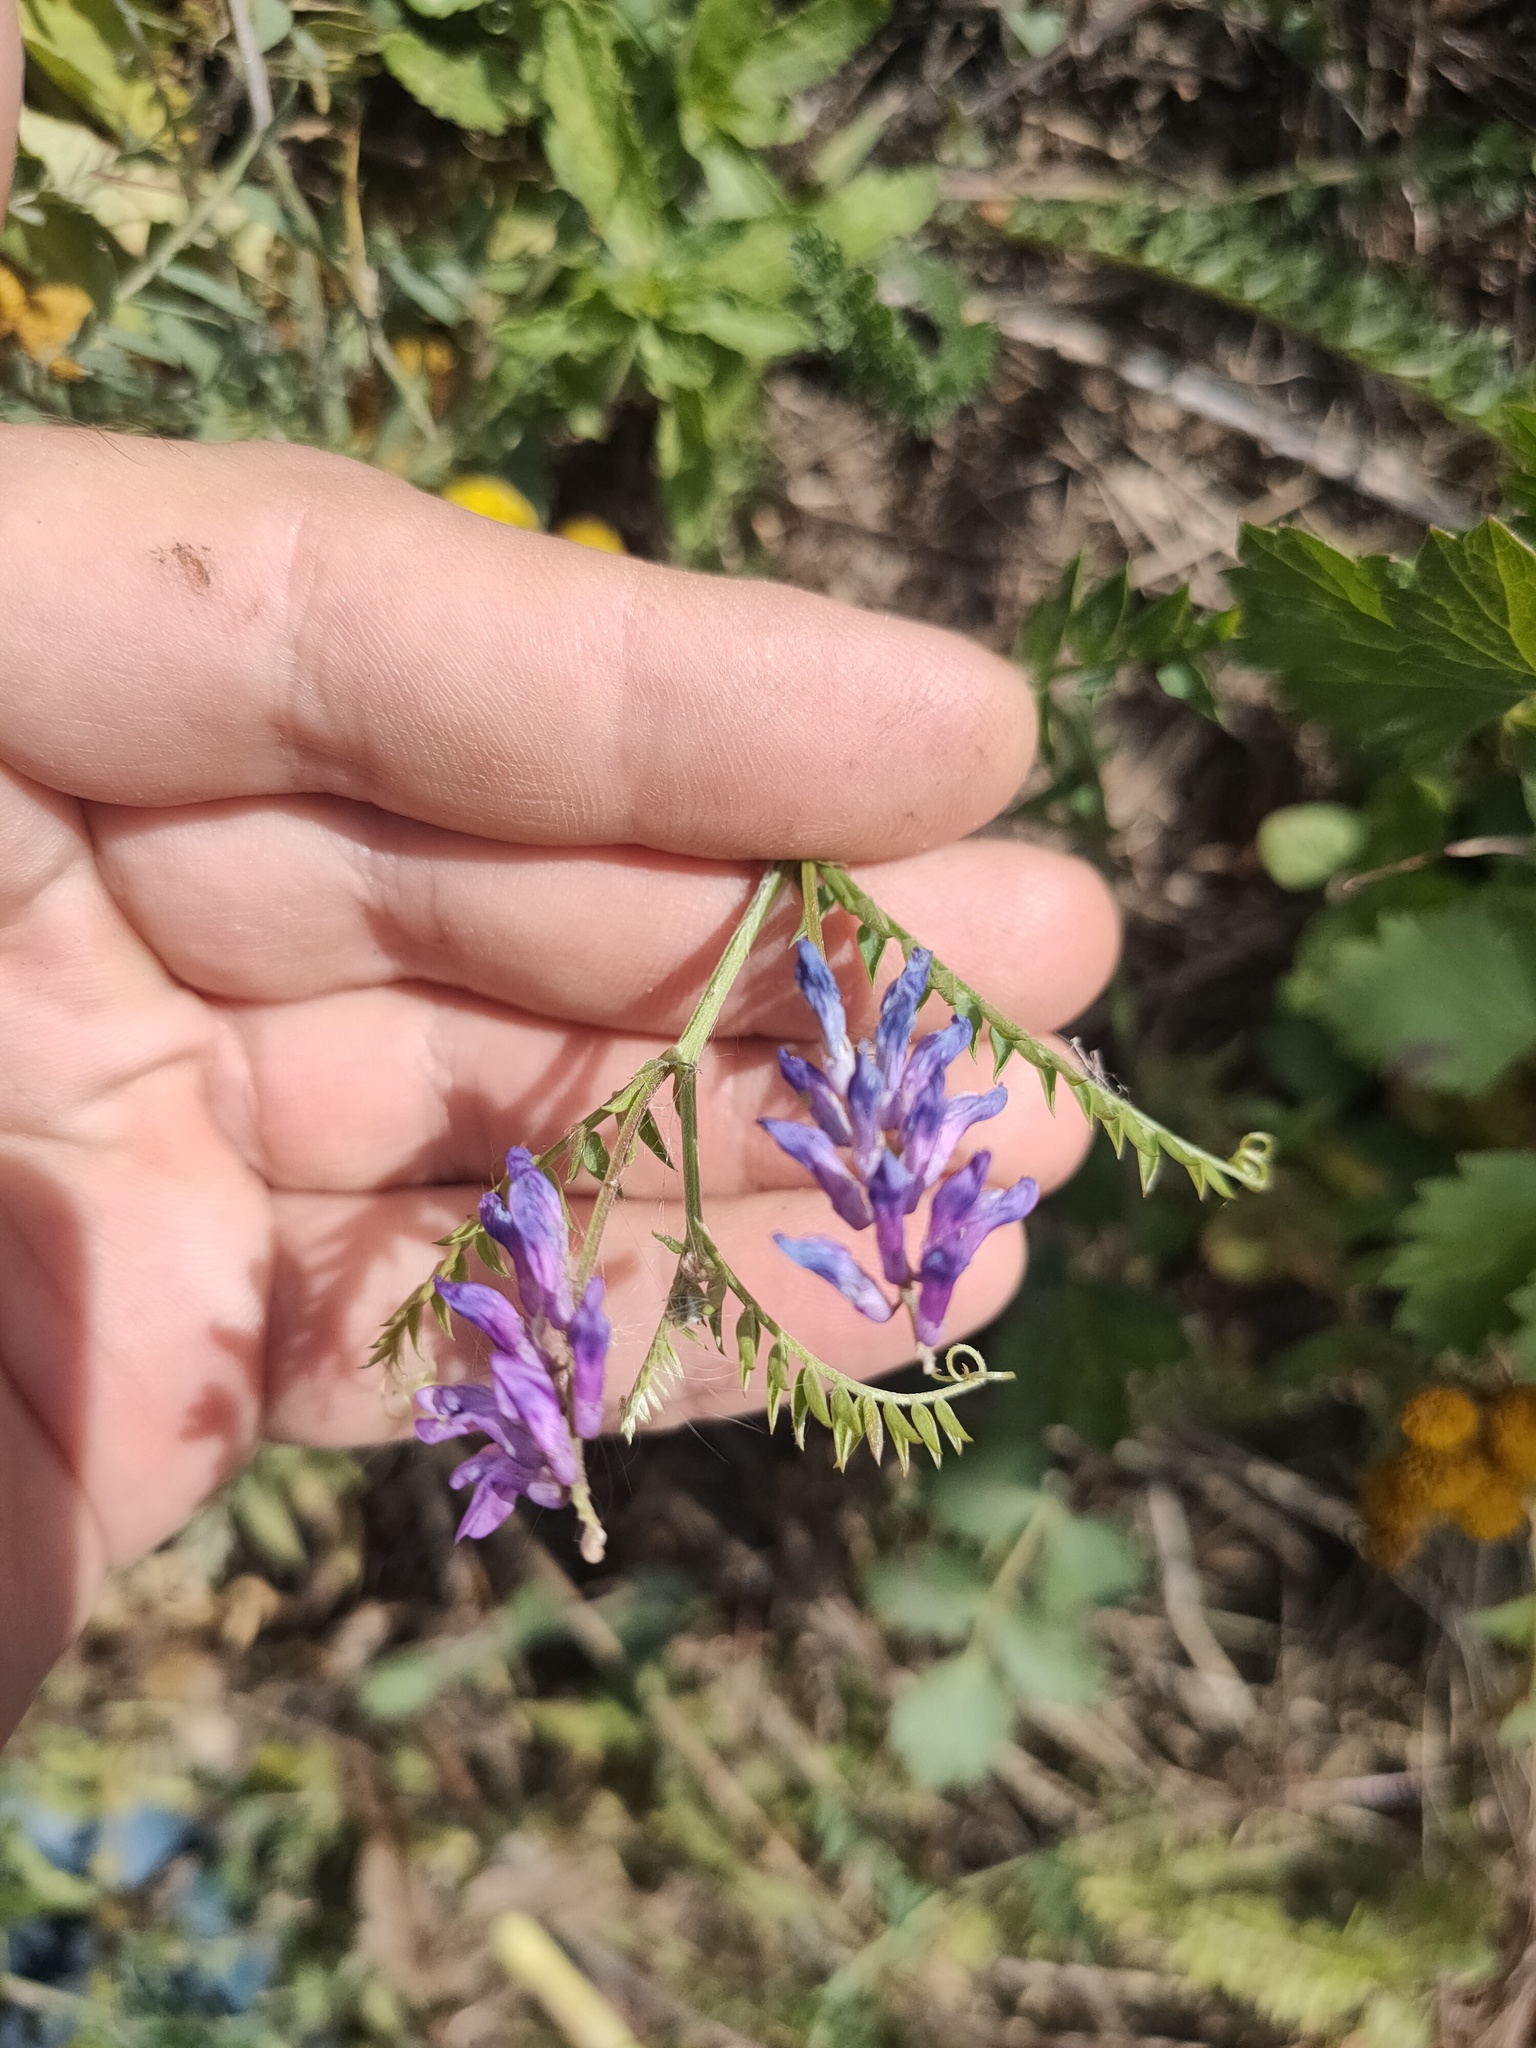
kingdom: Plantae
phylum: Tracheophyta
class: Magnoliopsida
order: Fabales
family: Fabaceae
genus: Vicia
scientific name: Vicia cracca
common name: Bird vetch
